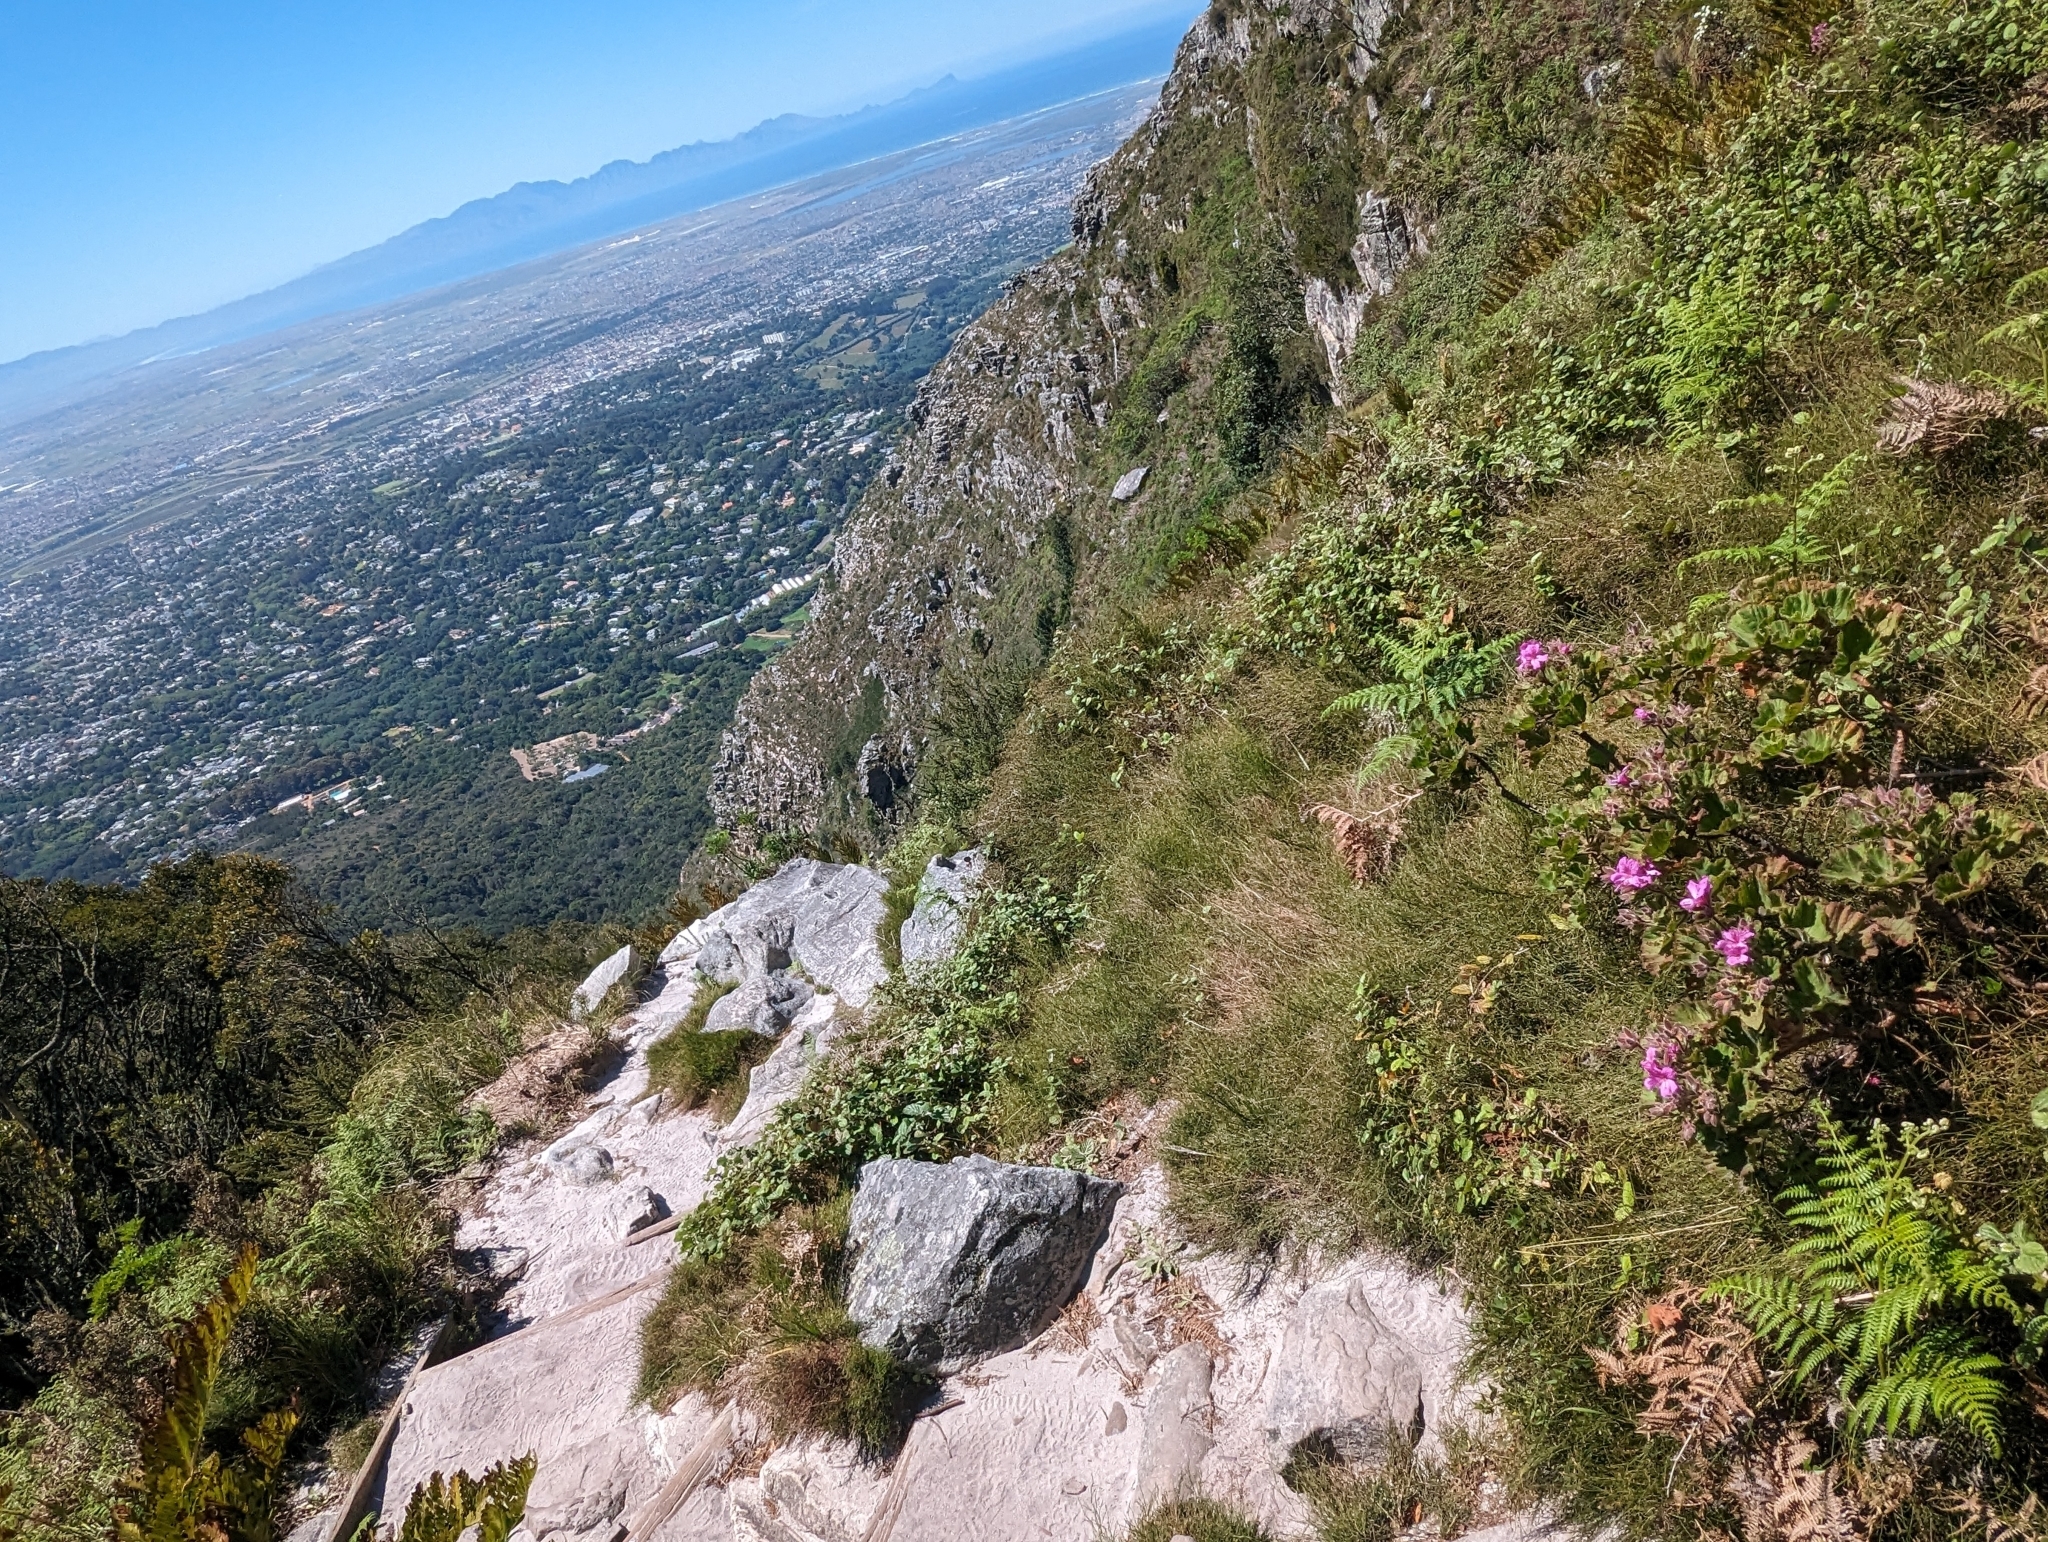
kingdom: Plantae
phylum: Tracheophyta
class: Magnoliopsida
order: Geraniales
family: Geraniaceae
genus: Pelargonium
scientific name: Pelargonium cucullatum
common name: Tree pelargonium
